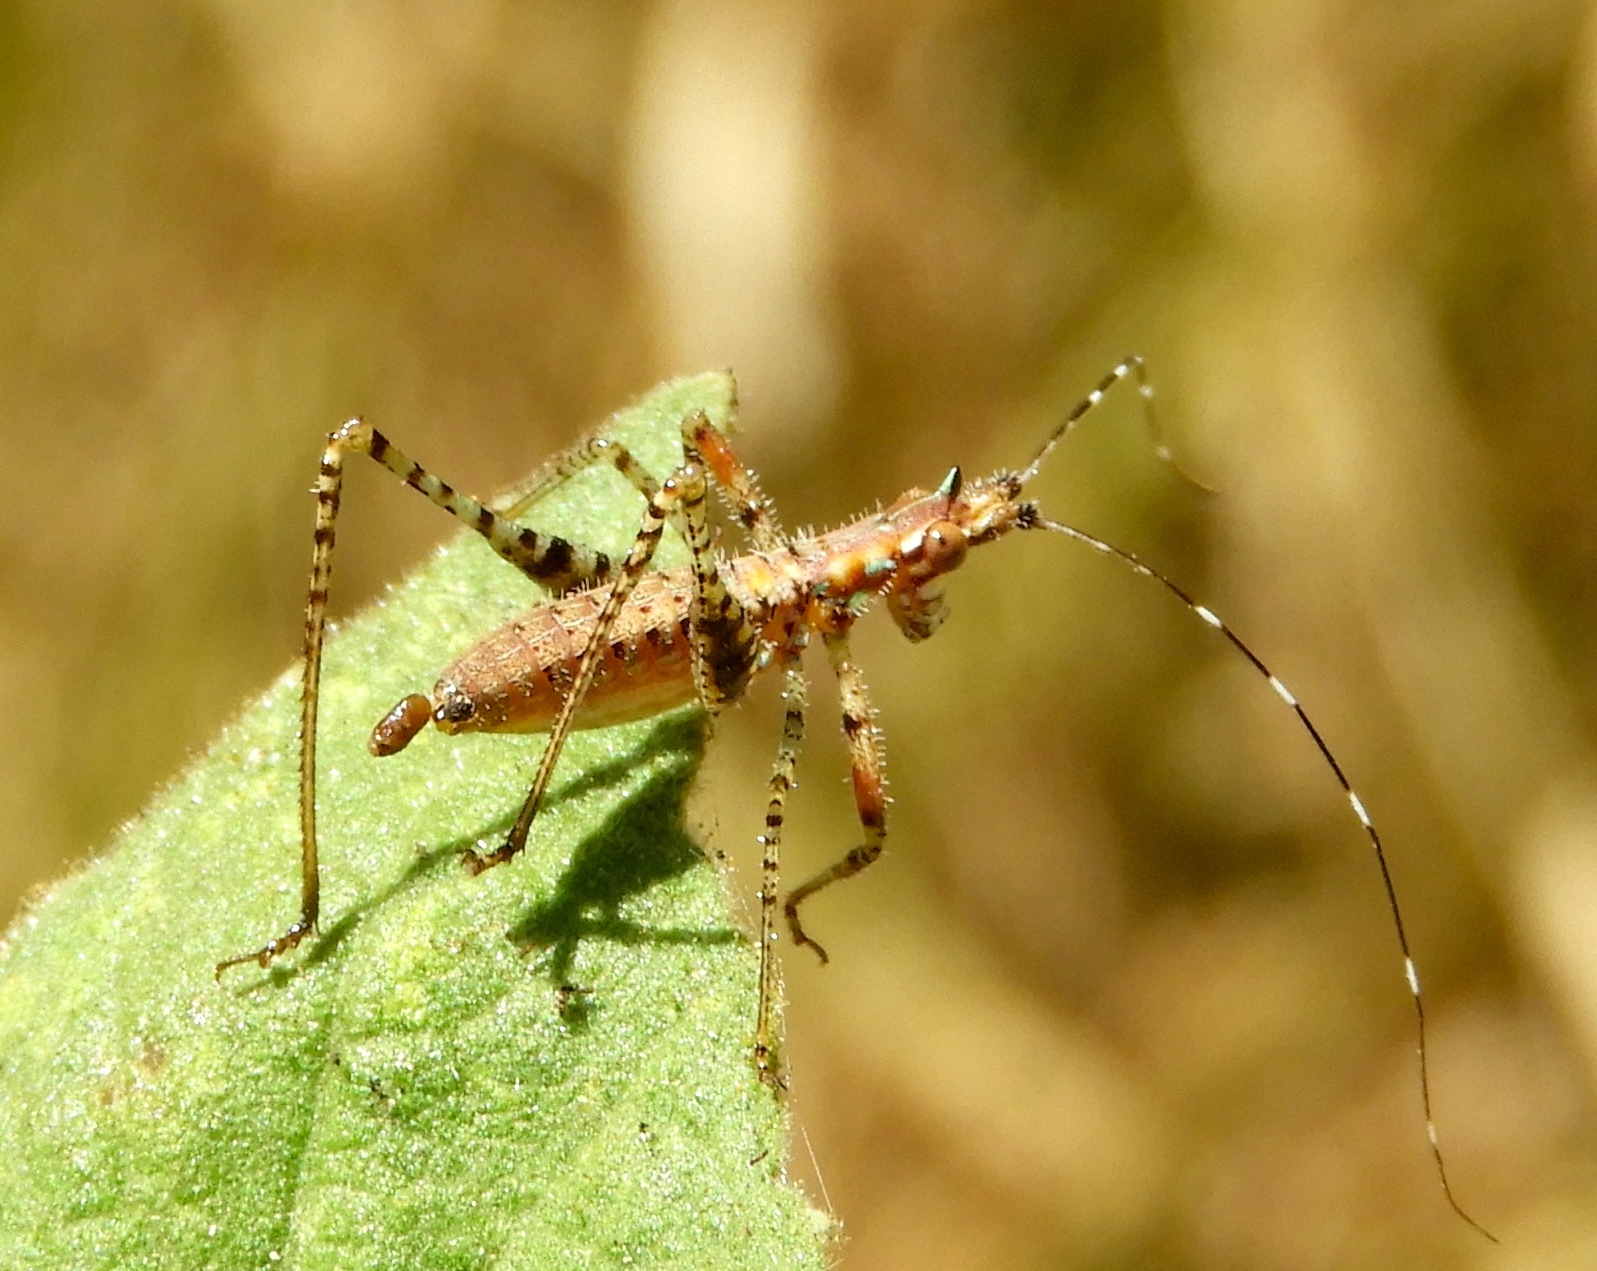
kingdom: Animalia
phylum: Arthropoda
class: Insecta
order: Orthoptera
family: Tettigoniidae
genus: Scudderia
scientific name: Scudderia
